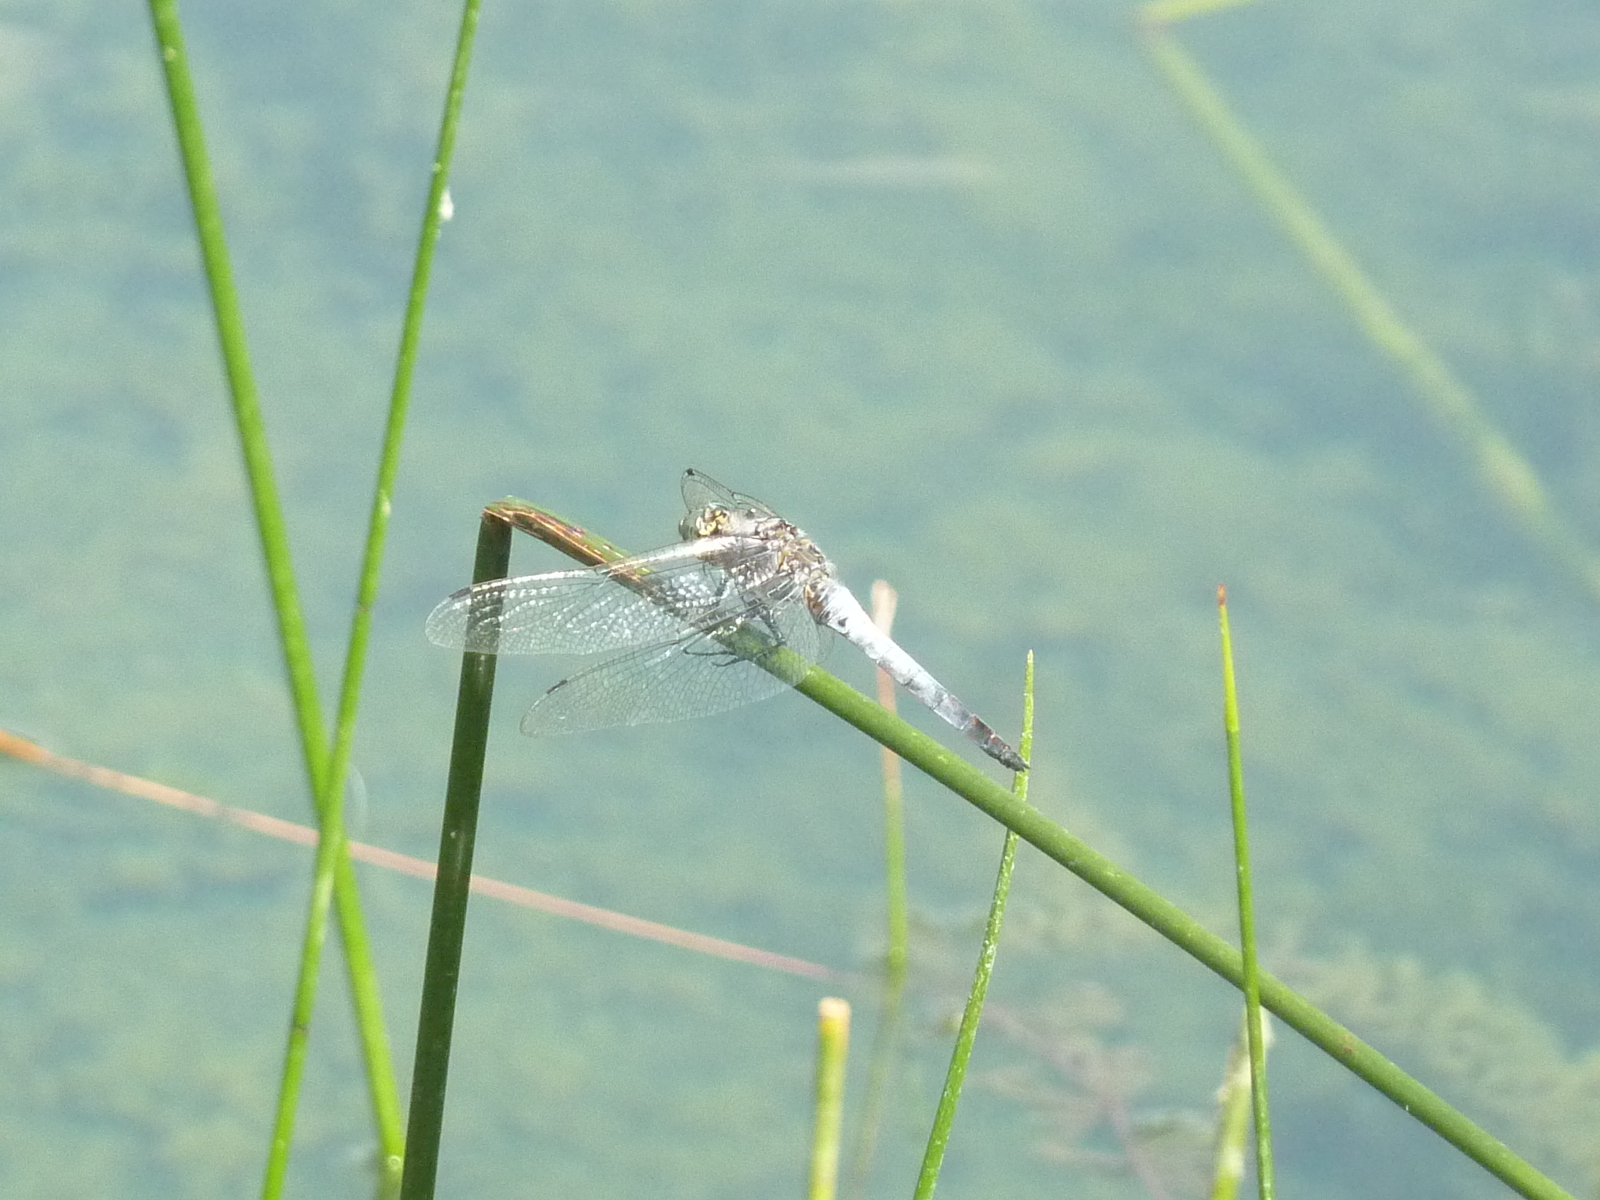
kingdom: Animalia
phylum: Arthropoda
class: Insecta
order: Odonata
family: Libellulidae
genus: Orthetrum
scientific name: Orthetrum cancellatum
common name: Black-tailed skimmer
